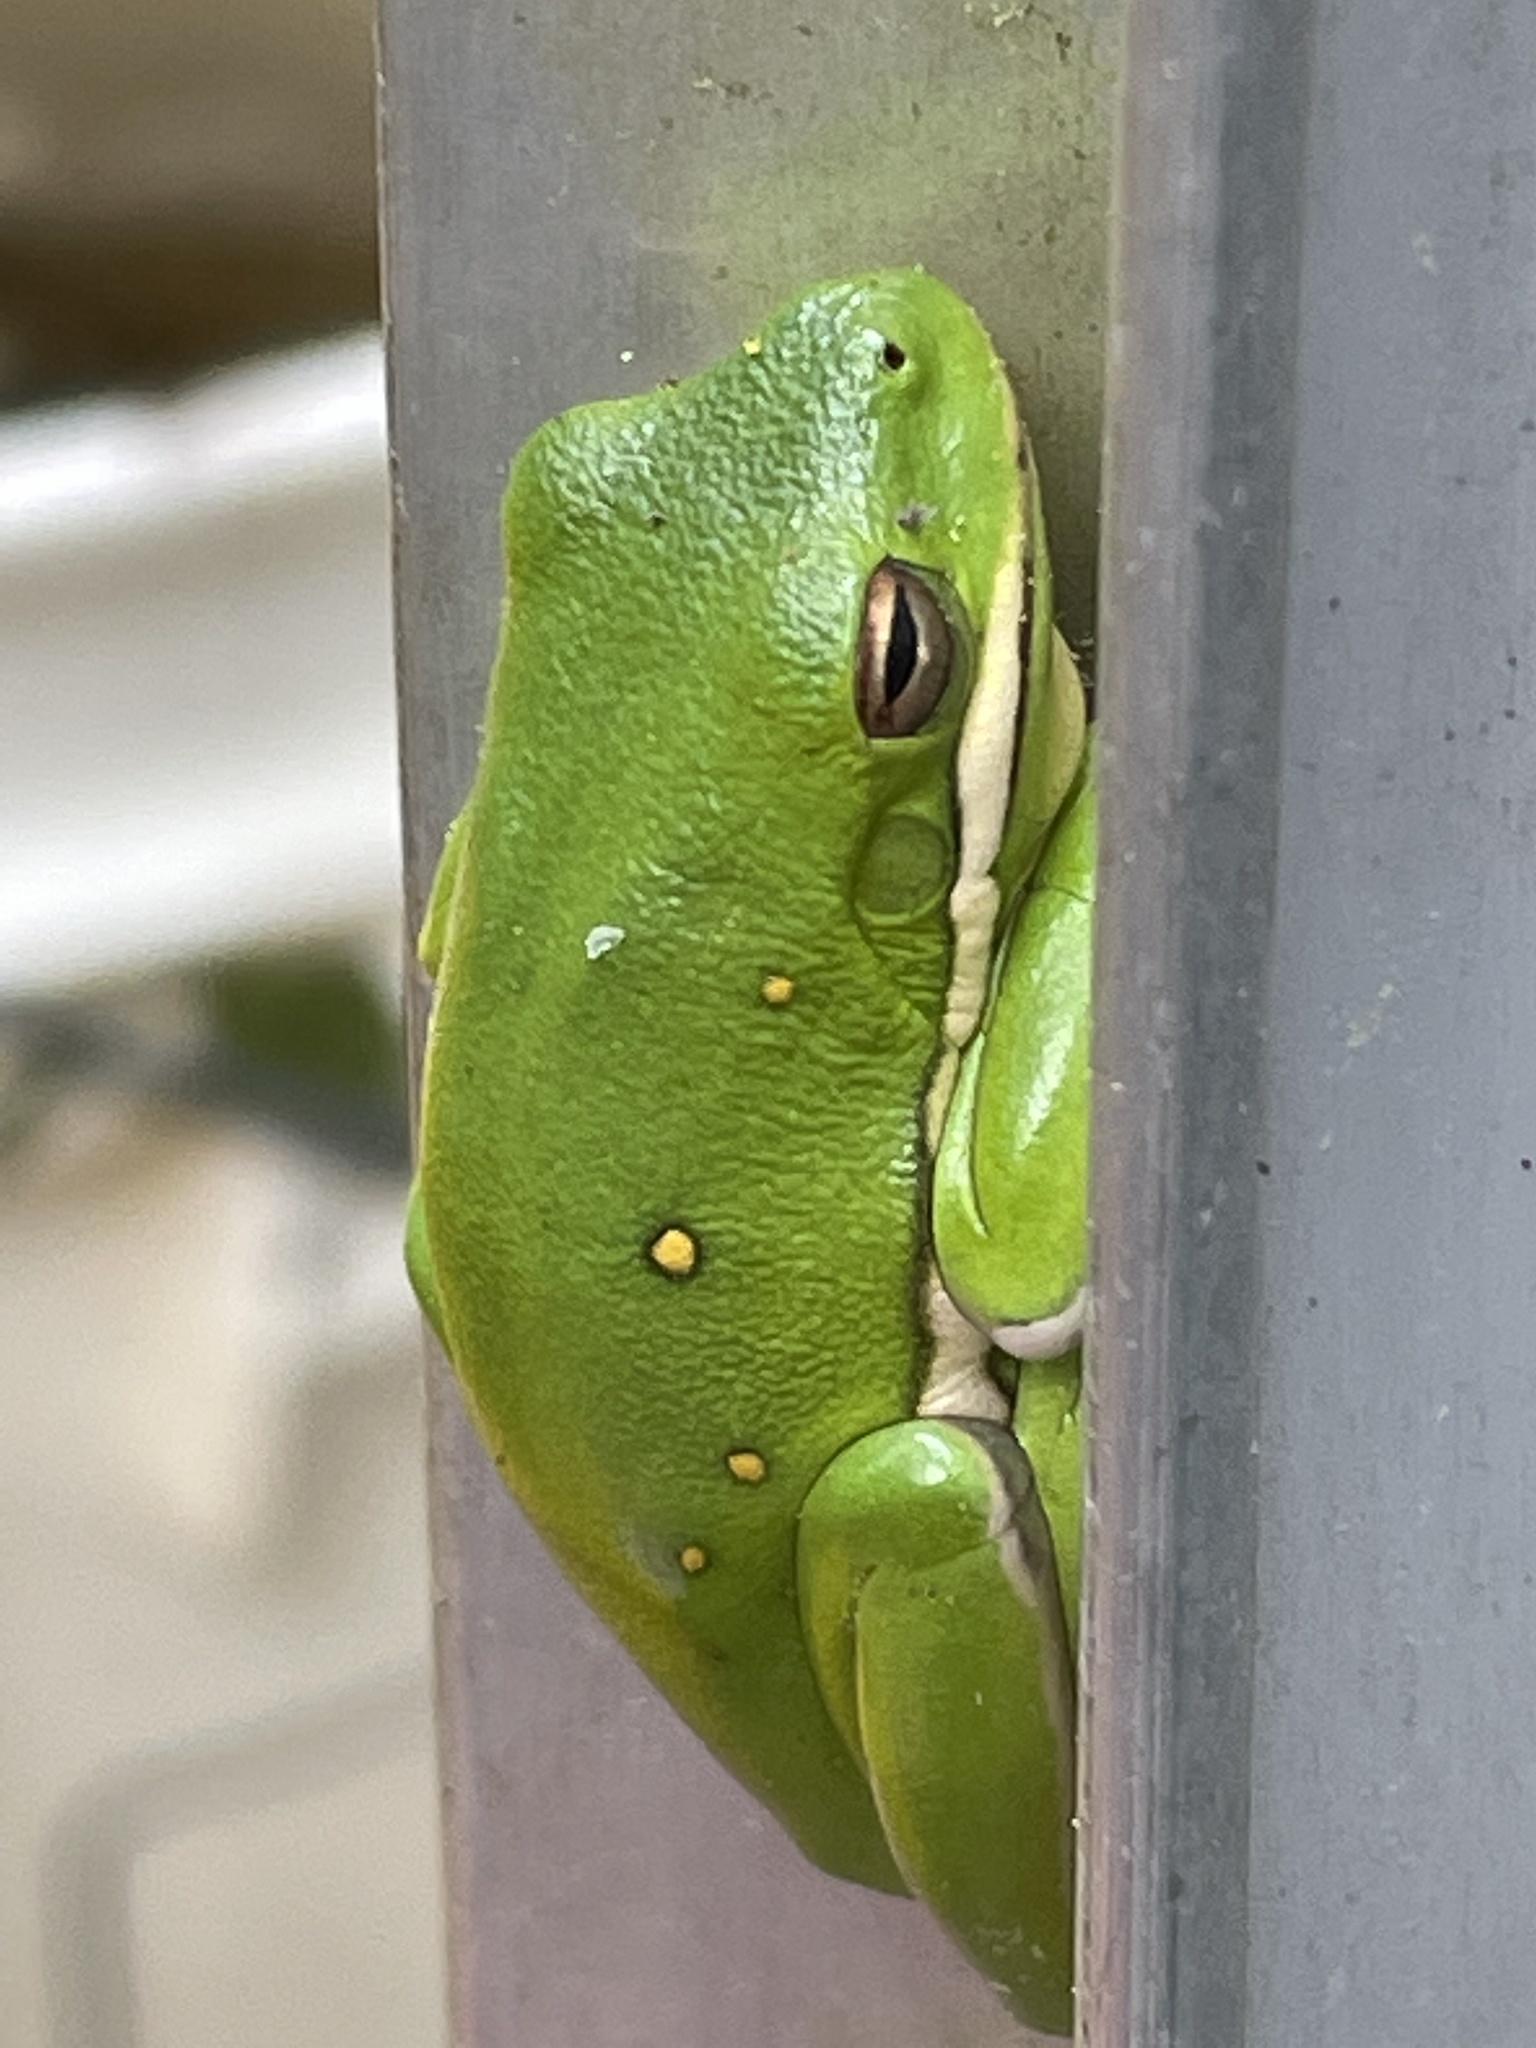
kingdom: Animalia
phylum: Chordata
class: Amphibia
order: Anura
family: Hylidae
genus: Dryophytes
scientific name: Dryophytes cinereus
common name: Green treefrog
